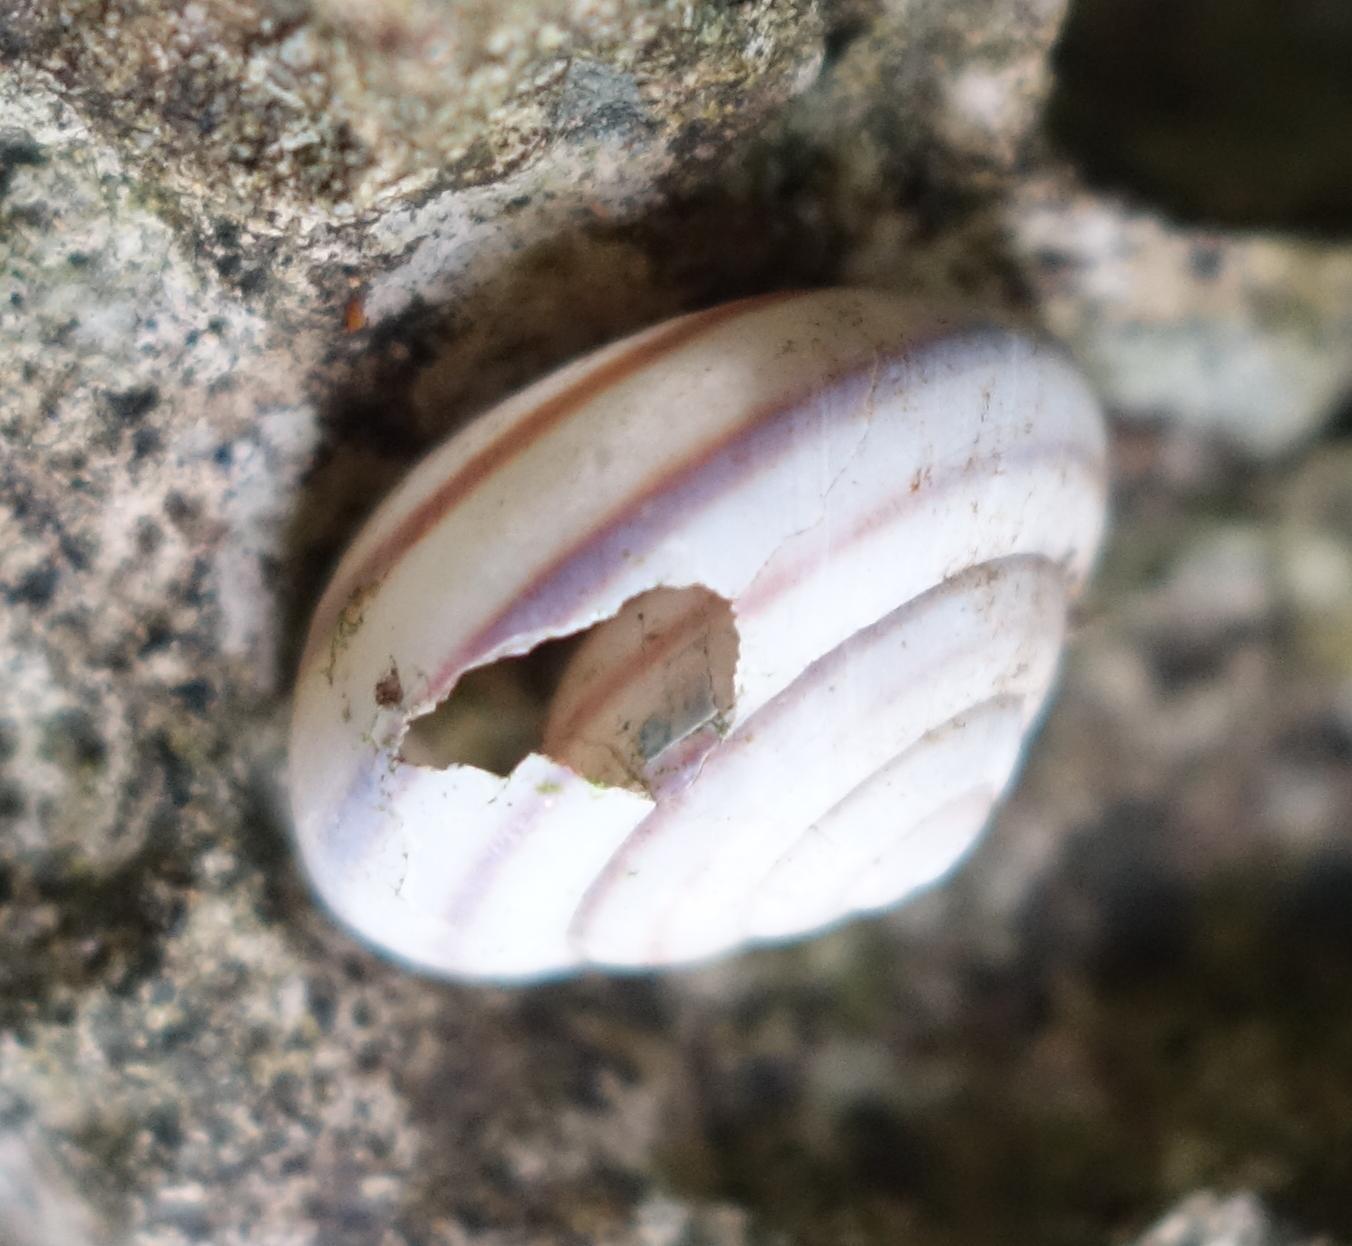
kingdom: Animalia
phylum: Mollusca
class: Gastropoda
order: Stylommatophora
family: Camaenidae
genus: Pancala
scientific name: Pancala batanica
